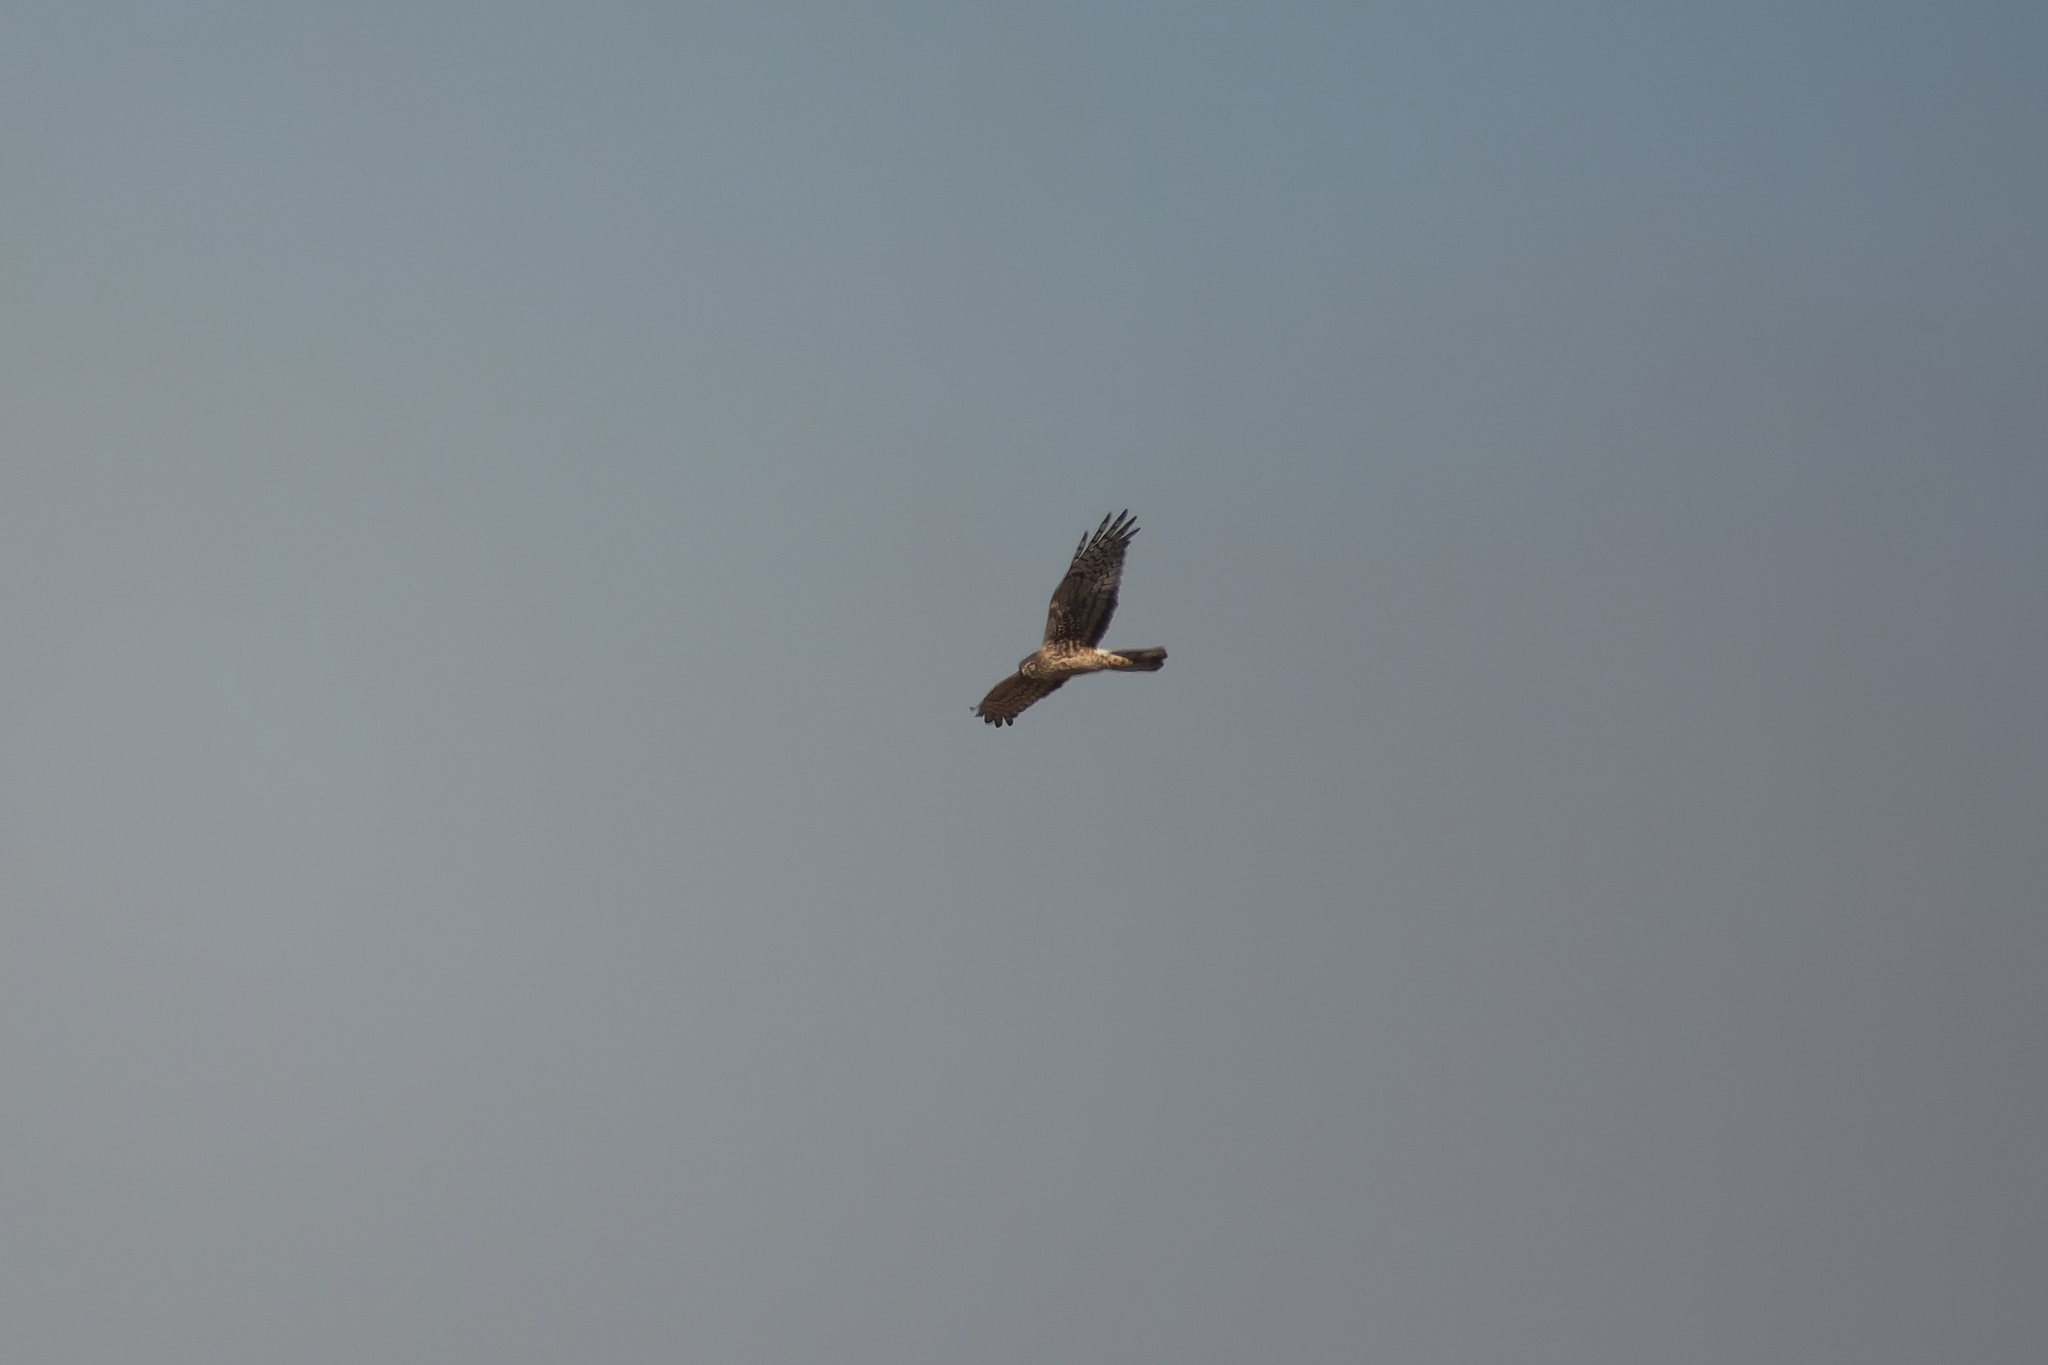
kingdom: Animalia
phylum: Chordata
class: Aves
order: Accipitriformes
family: Accipitridae
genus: Circus
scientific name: Circus cyaneus
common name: Hen harrier
